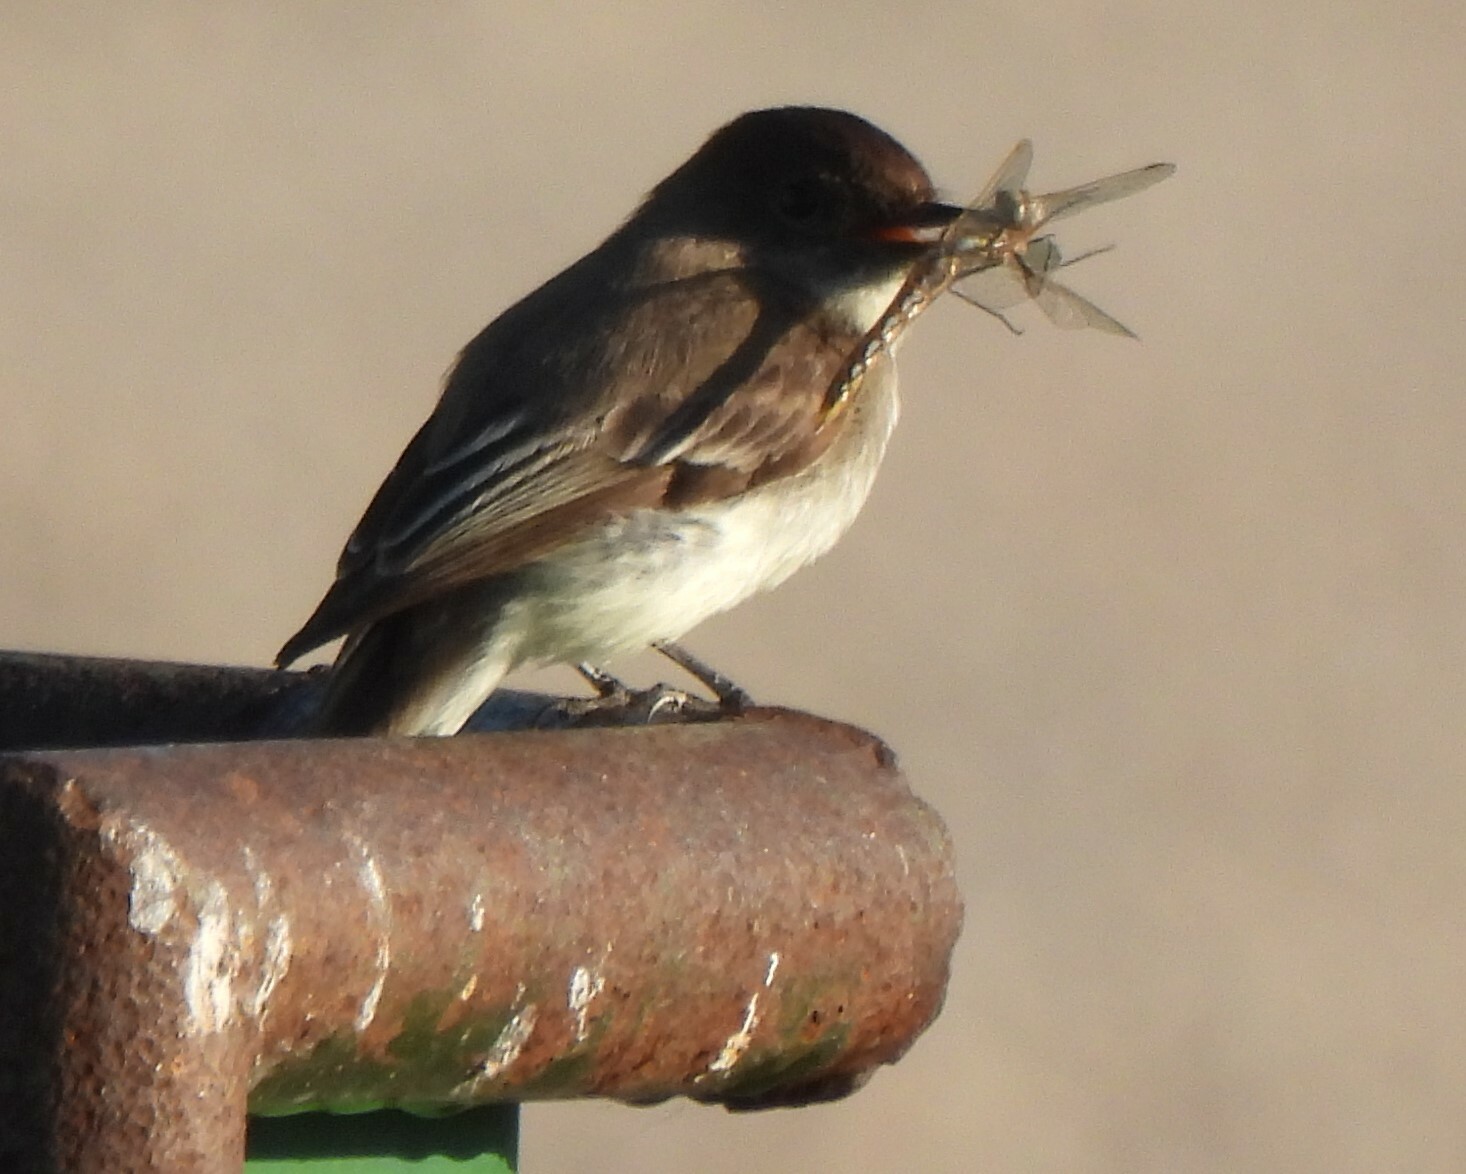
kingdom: Animalia
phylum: Chordata
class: Aves
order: Passeriformes
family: Tyrannidae
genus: Sayornis
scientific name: Sayornis phoebe
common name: Eastern phoebe
